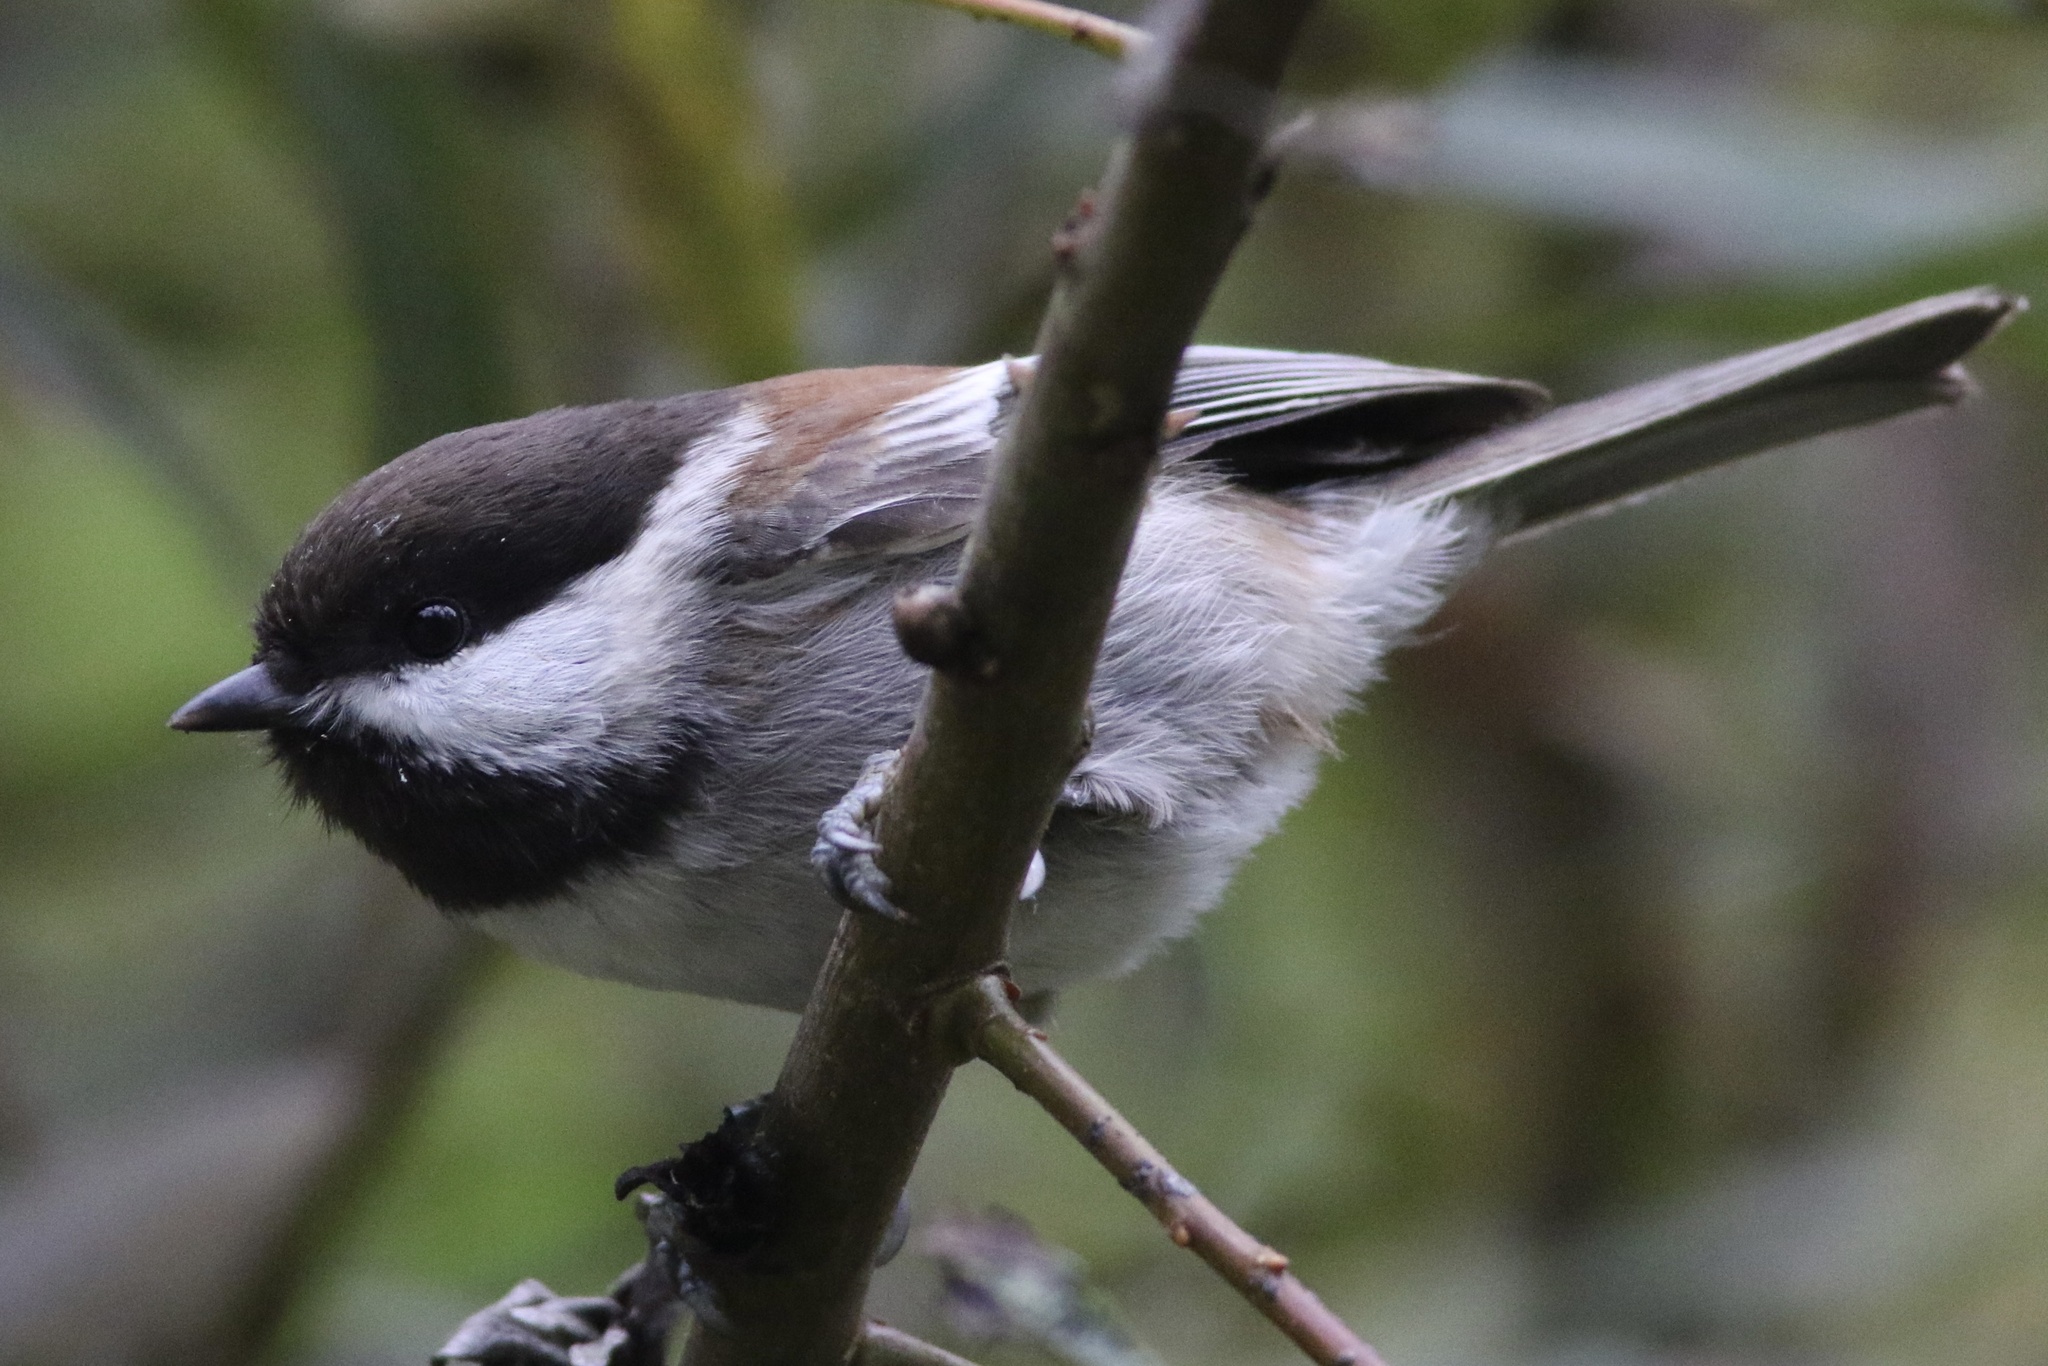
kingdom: Animalia
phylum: Chordata
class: Aves
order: Passeriformes
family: Paridae
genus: Poecile
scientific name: Poecile rufescens
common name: Chestnut-backed chickadee
